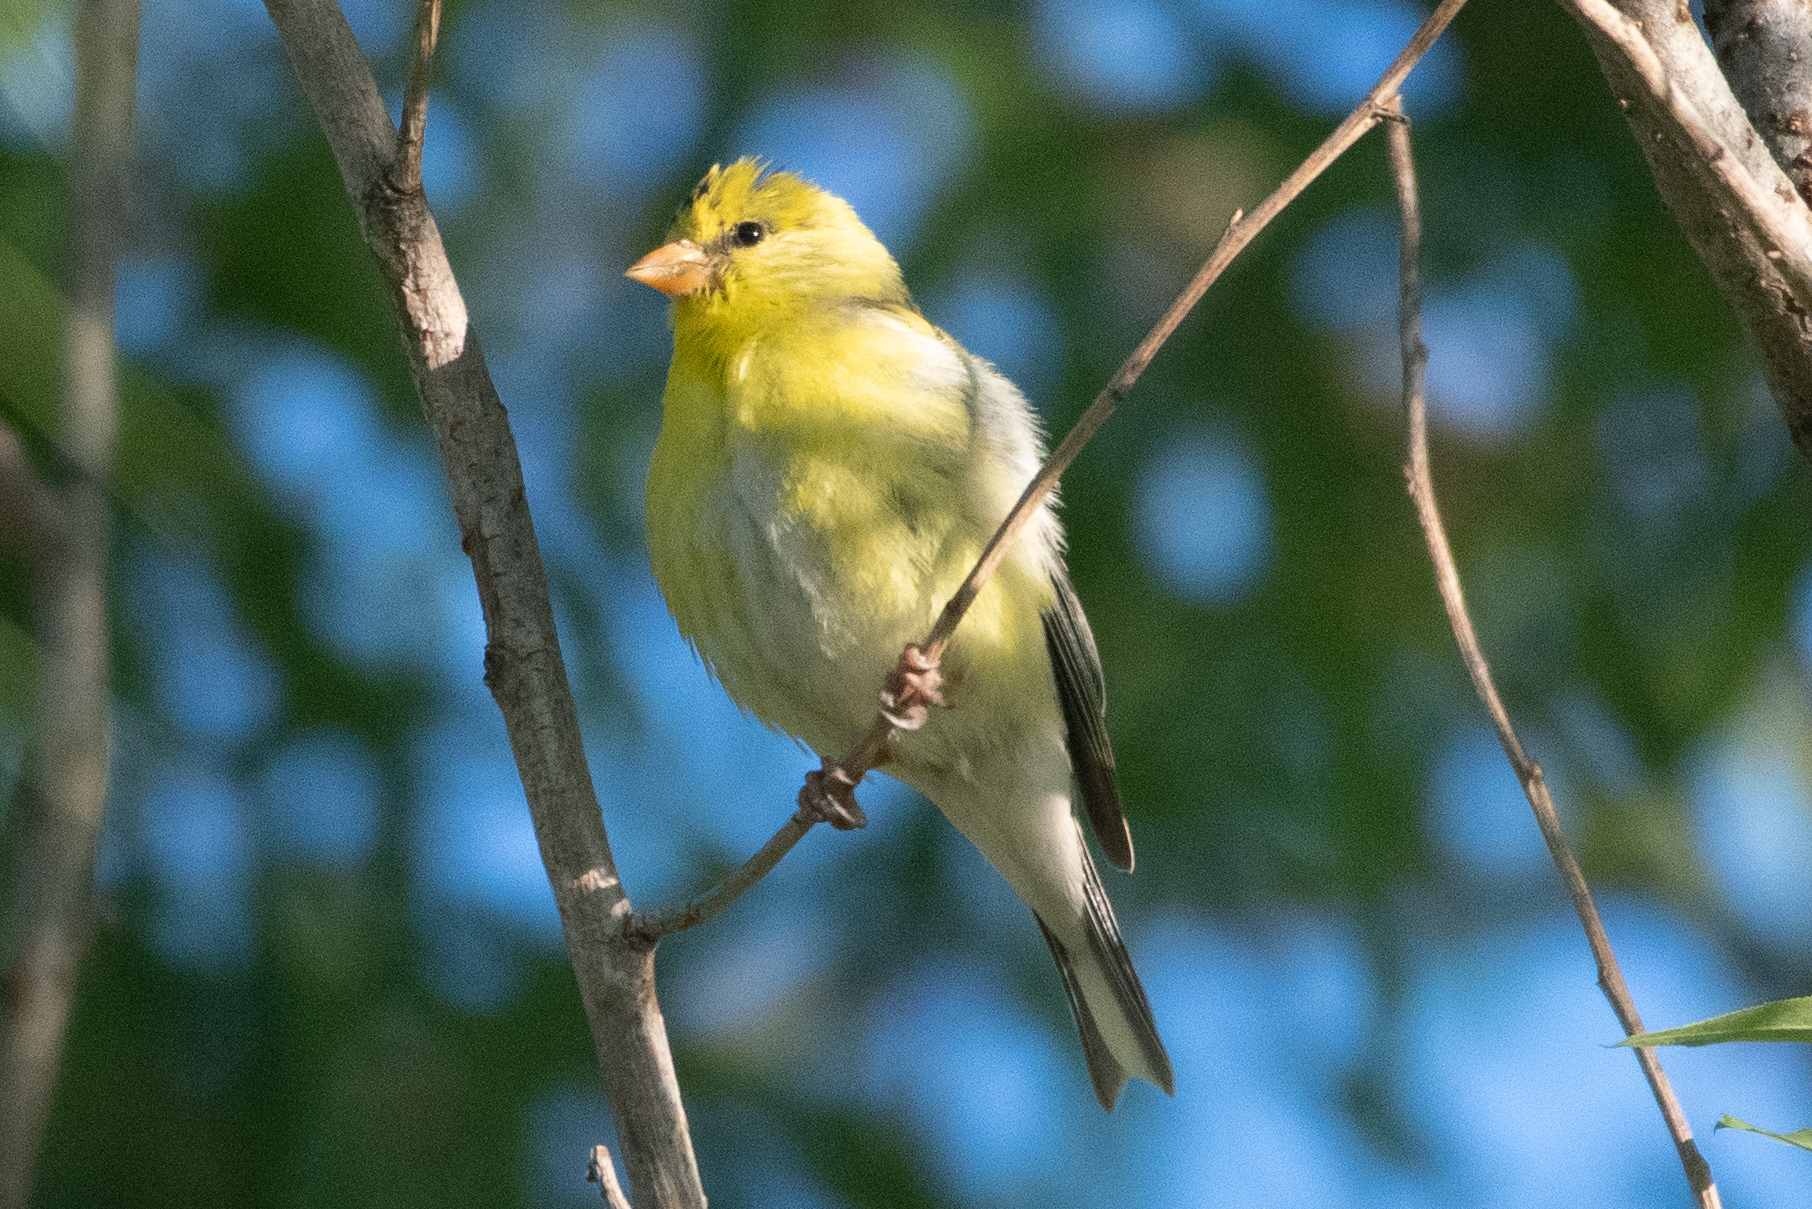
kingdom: Animalia
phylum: Chordata
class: Aves
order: Passeriformes
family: Fringillidae
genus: Spinus
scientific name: Spinus tristis
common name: American goldfinch
